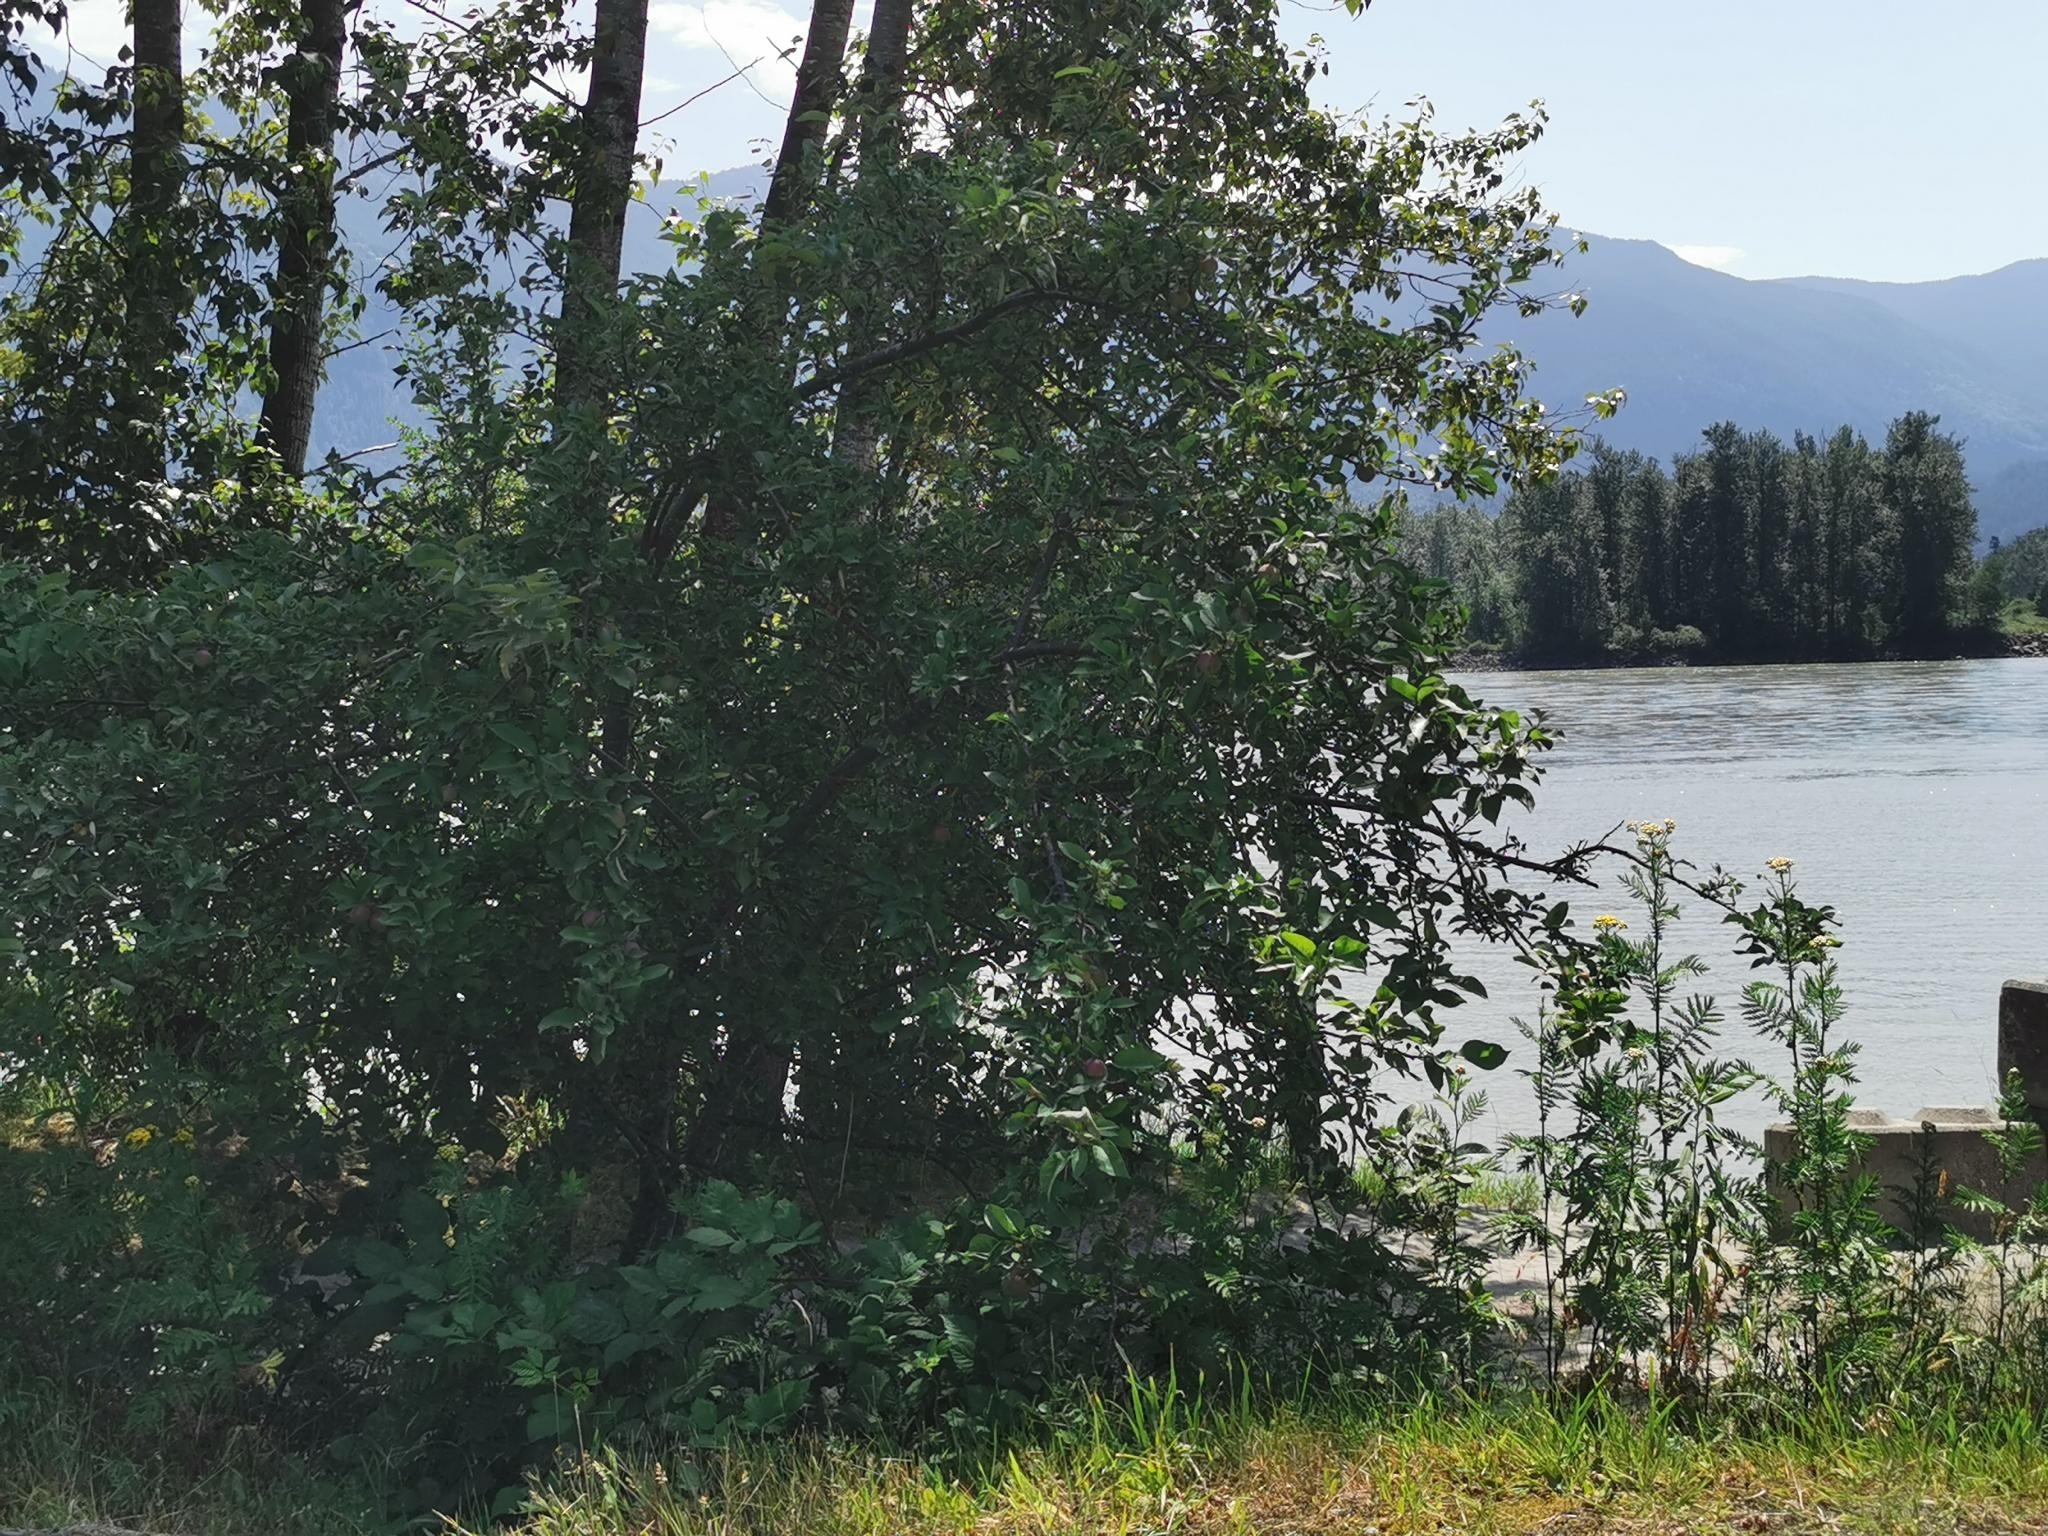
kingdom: Plantae
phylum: Tracheophyta
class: Magnoliopsida
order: Rosales
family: Rosaceae
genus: Malus
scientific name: Malus domestica
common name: Apple
